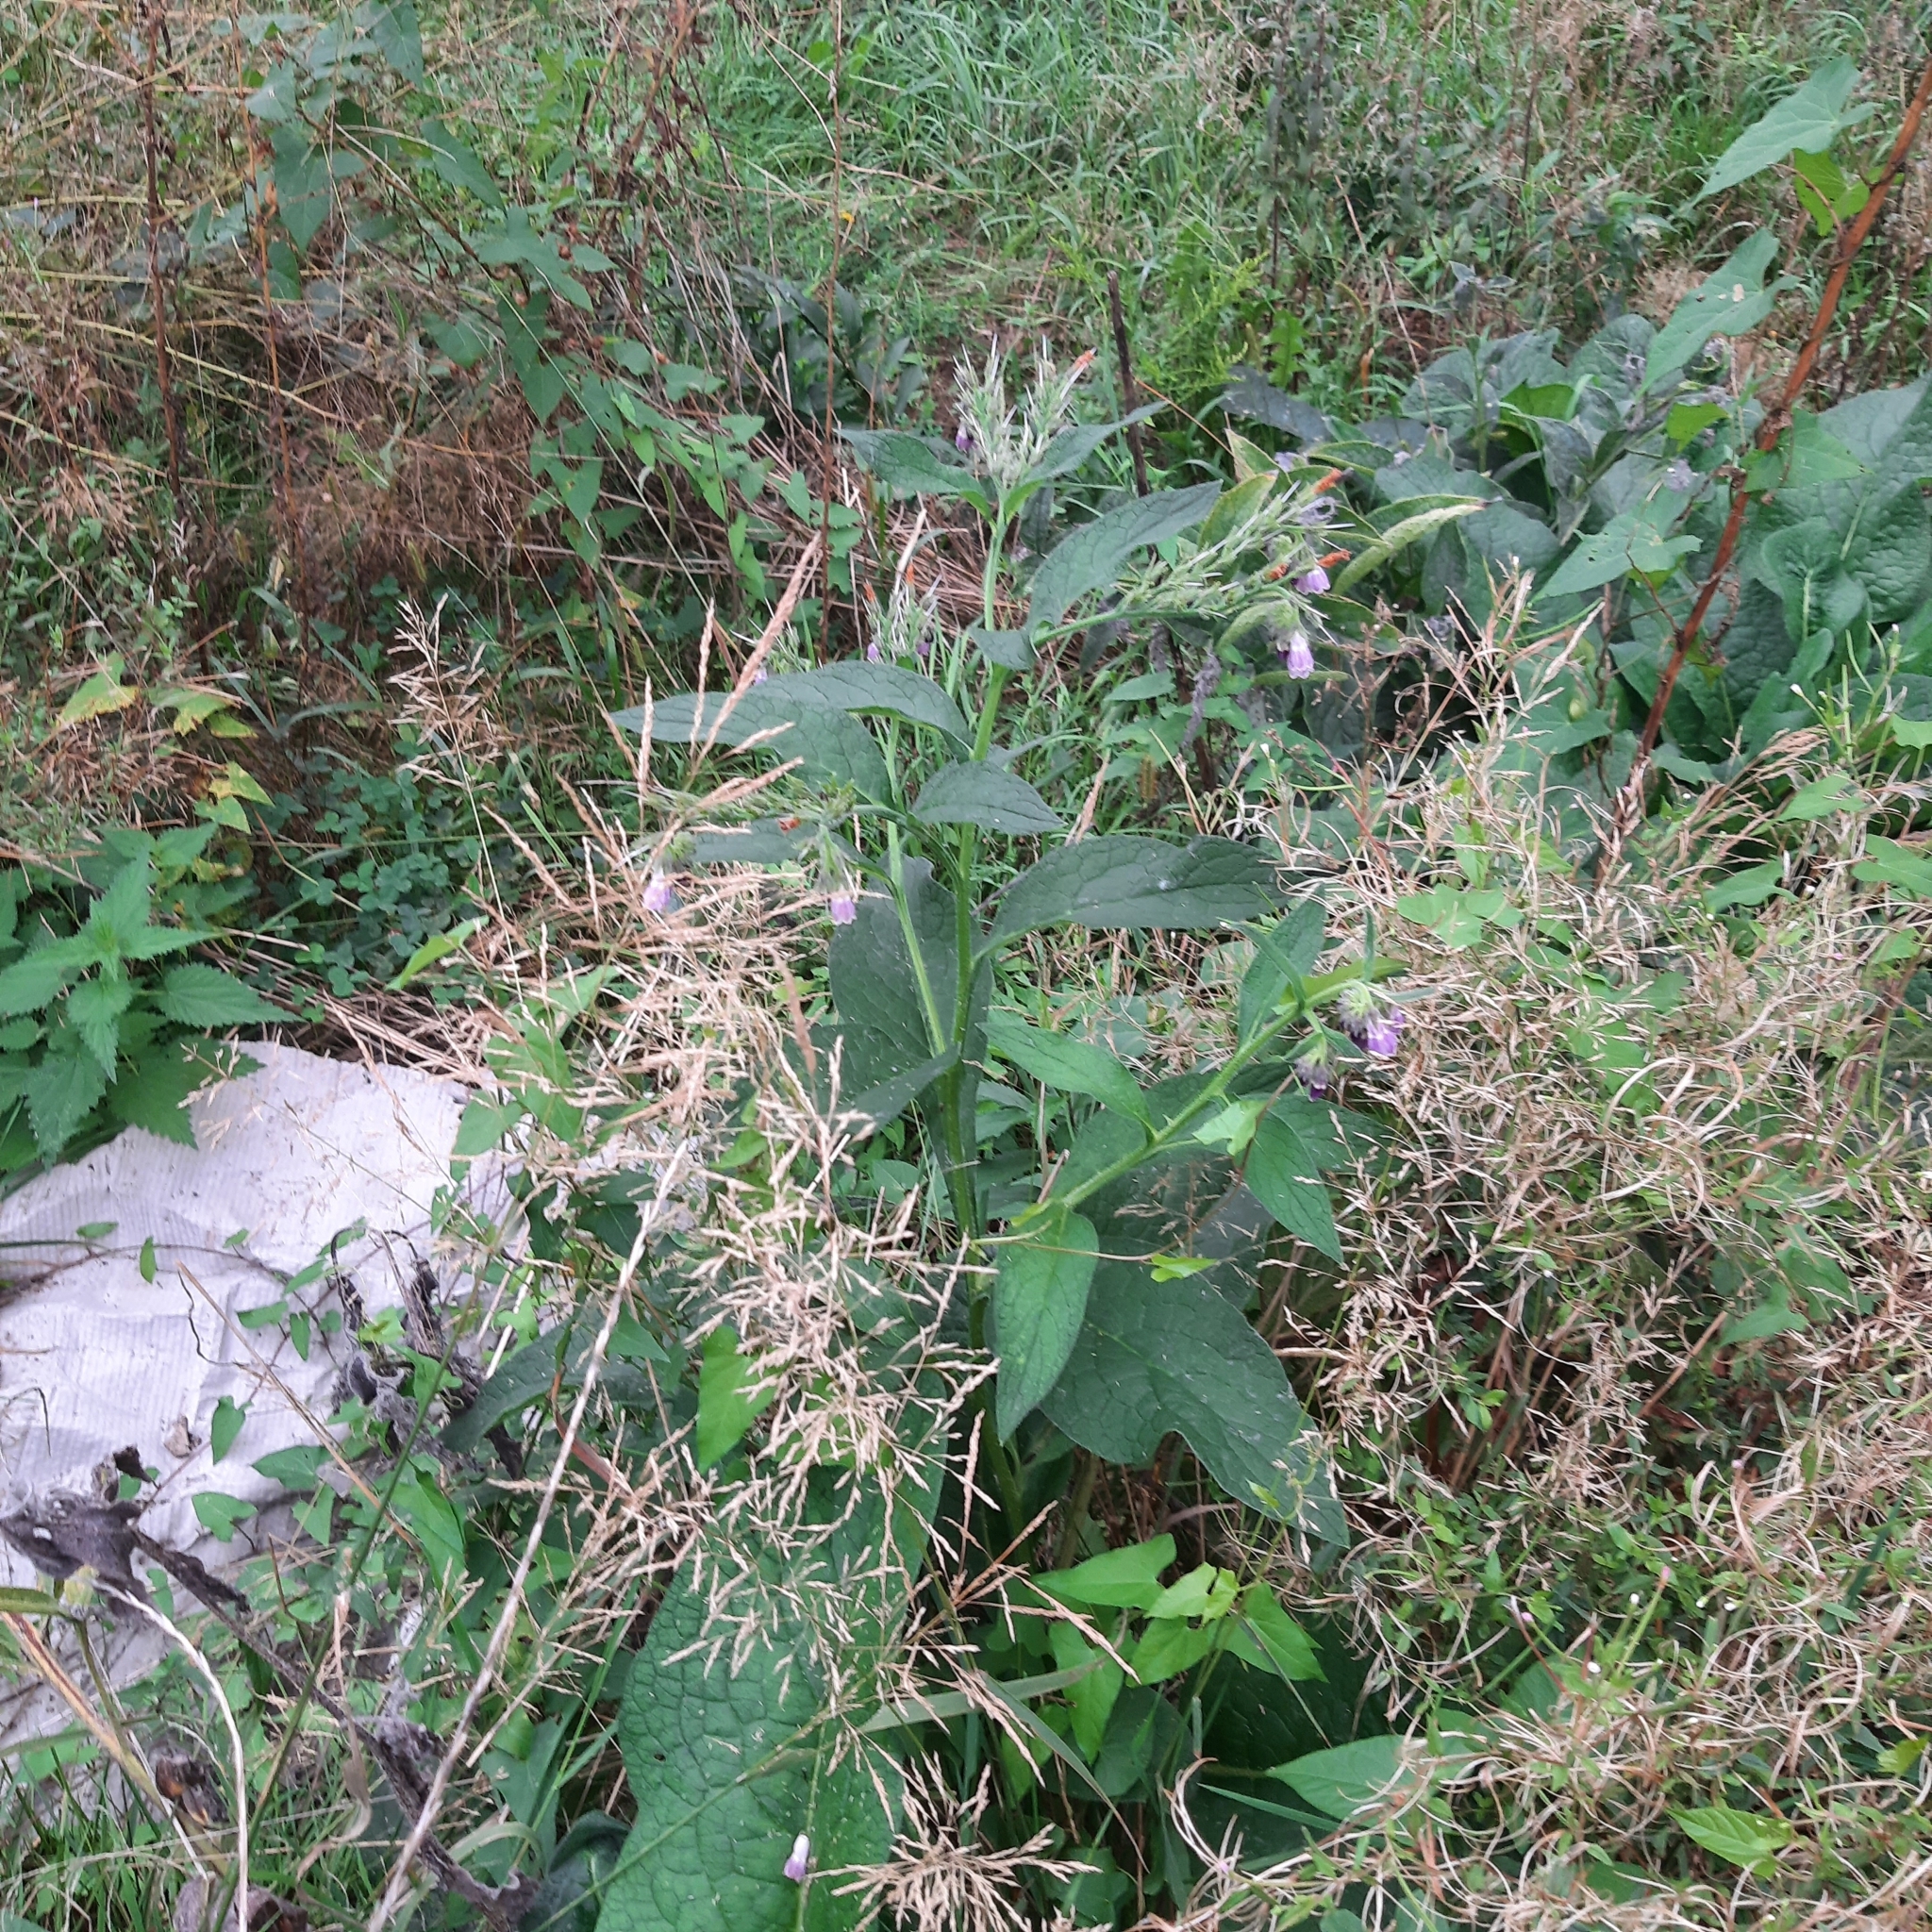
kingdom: Plantae
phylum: Tracheophyta
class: Magnoliopsida
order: Boraginales
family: Boraginaceae
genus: Symphytum
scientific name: Symphytum officinale
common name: Common comfrey
